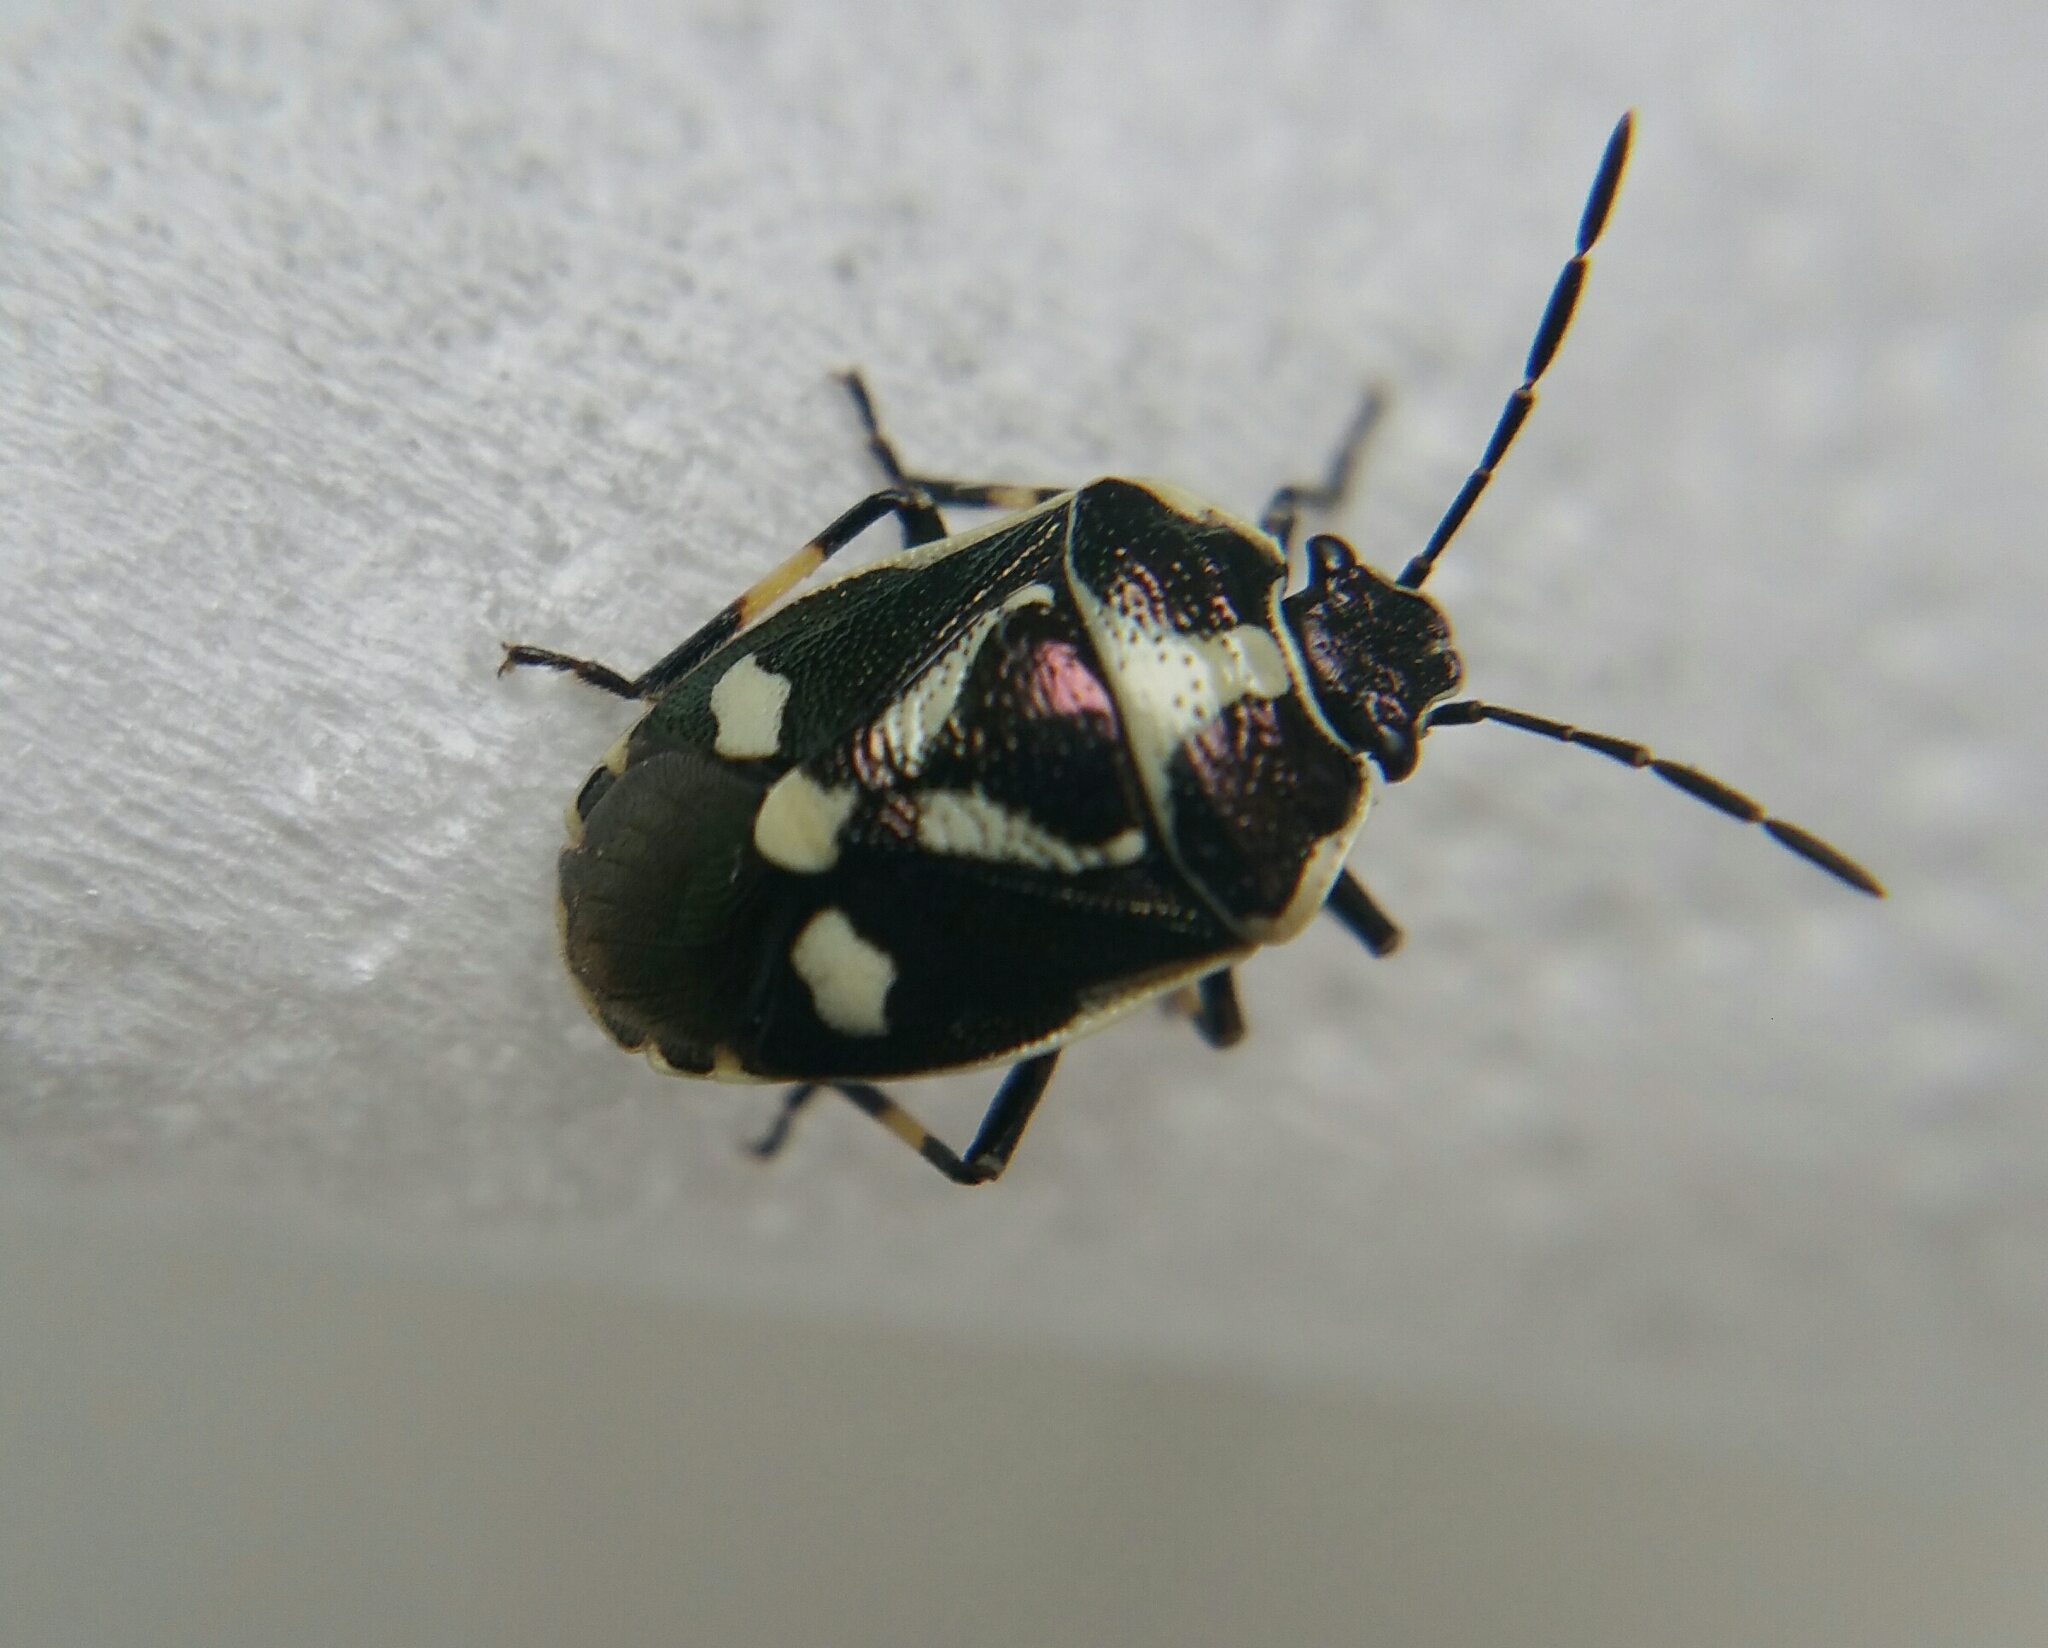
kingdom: Animalia
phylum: Arthropoda
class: Insecta
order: Hemiptera
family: Pentatomidae
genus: Eurydema
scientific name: Eurydema oleracea
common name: Cabbage bug
